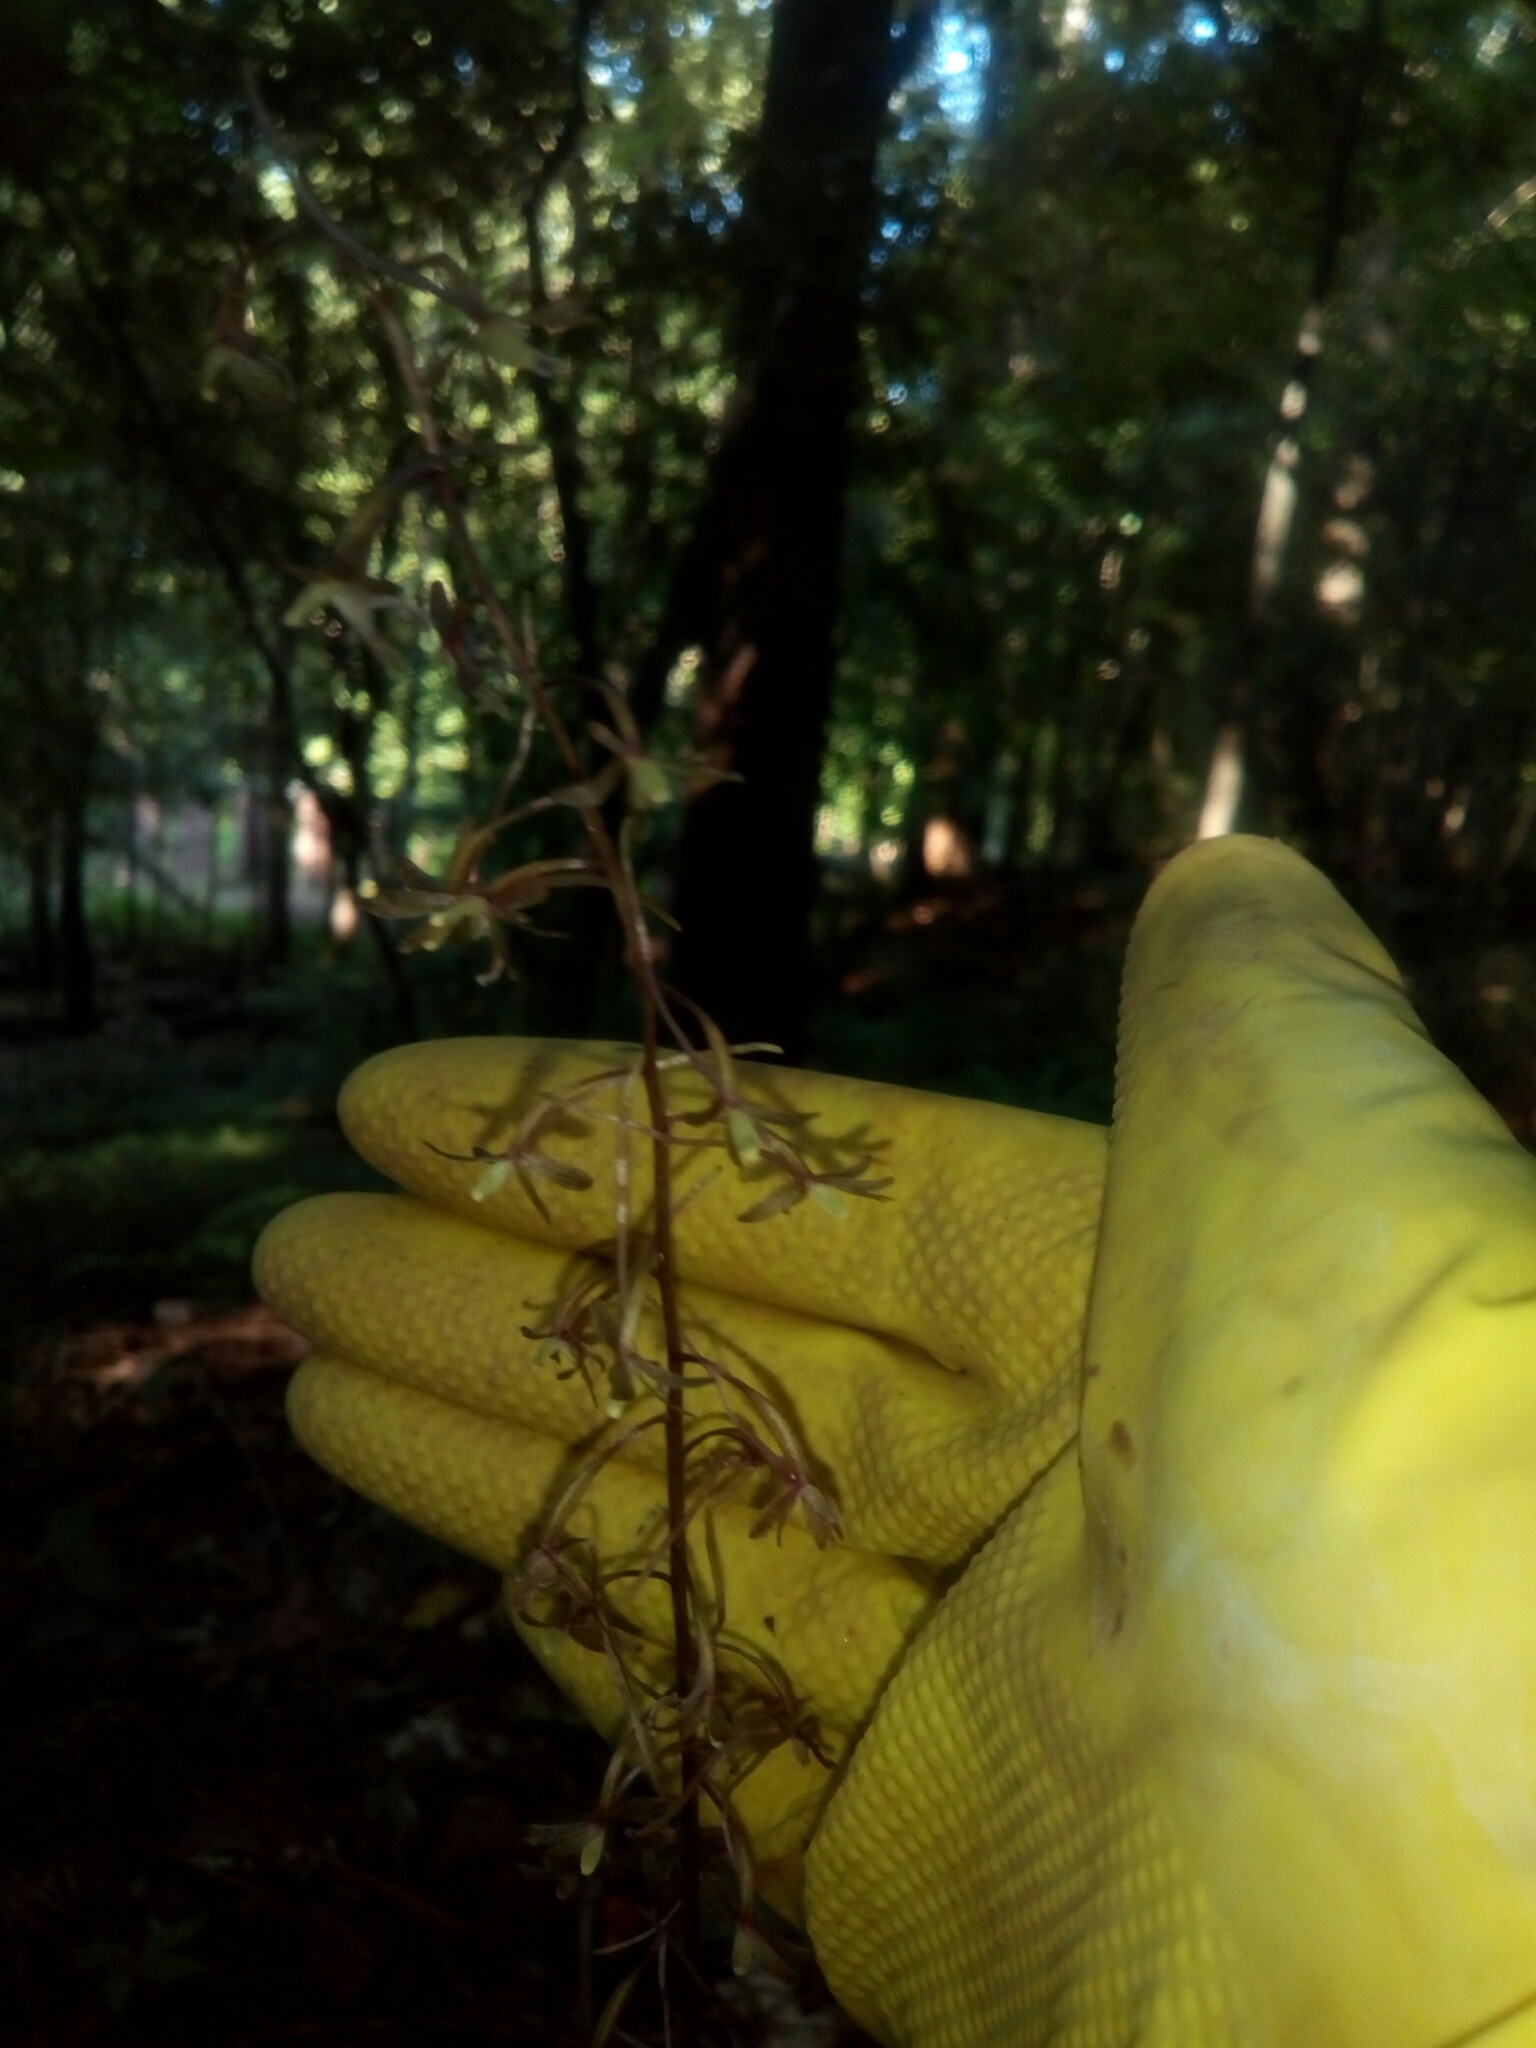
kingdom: Plantae
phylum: Tracheophyta
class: Liliopsida
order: Asparagales
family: Orchidaceae
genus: Tipularia
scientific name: Tipularia discolor
